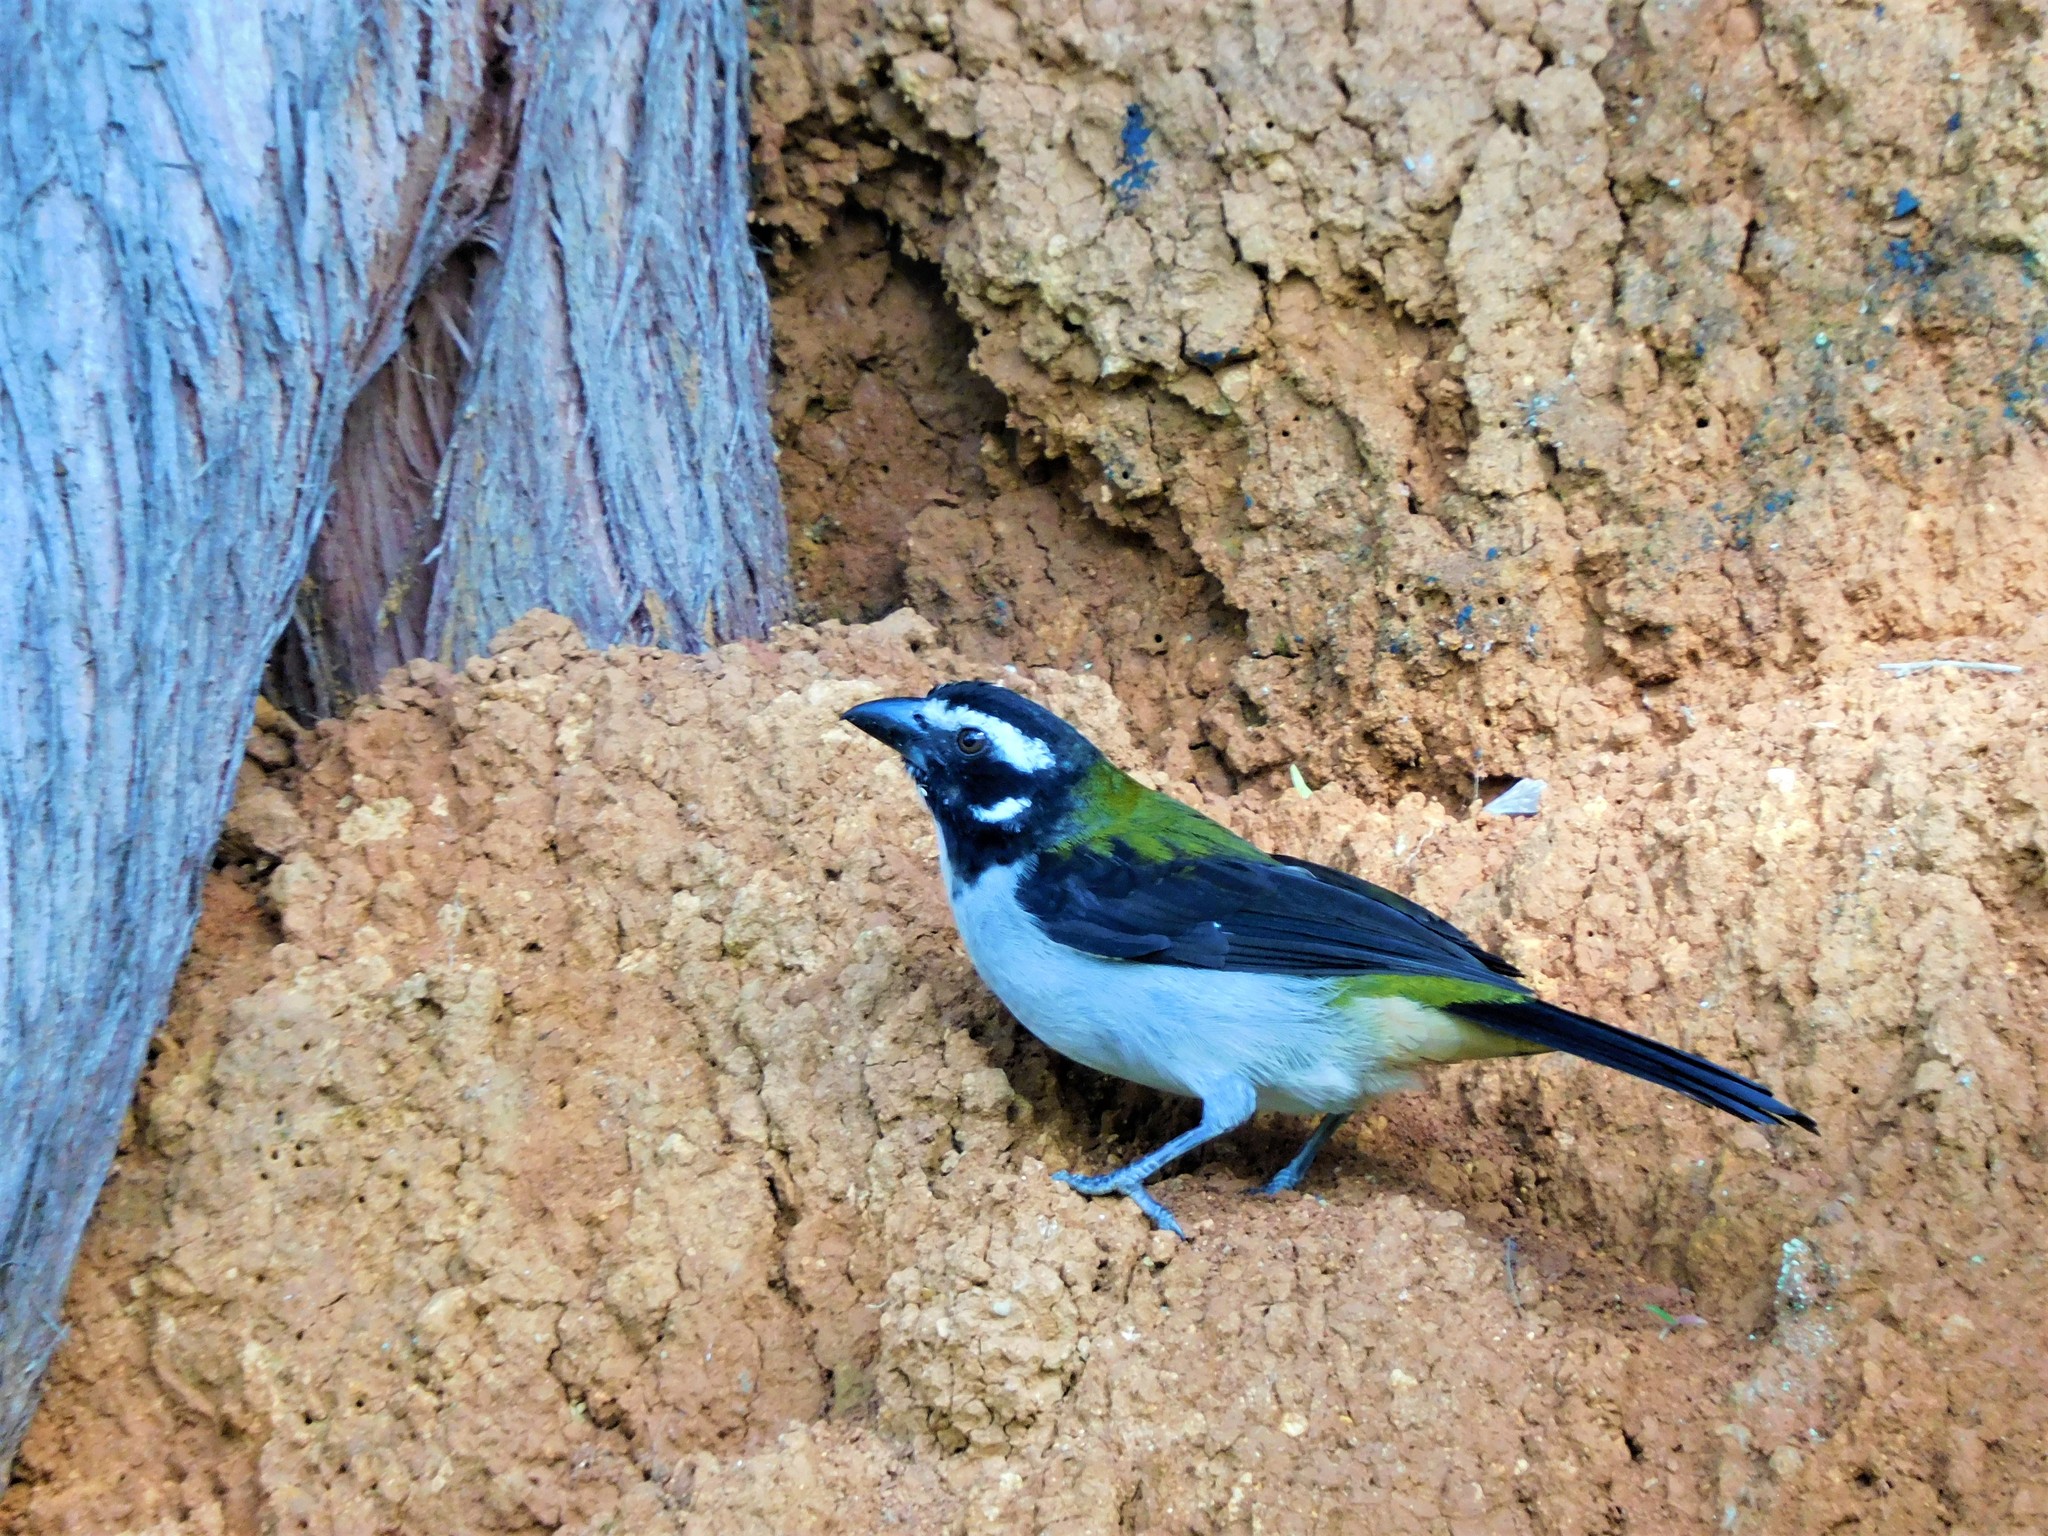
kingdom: Animalia
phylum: Chordata
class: Aves
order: Passeriformes
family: Thraupidae
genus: Saltator
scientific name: Saltator atripennis
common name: Black-winged saltator
